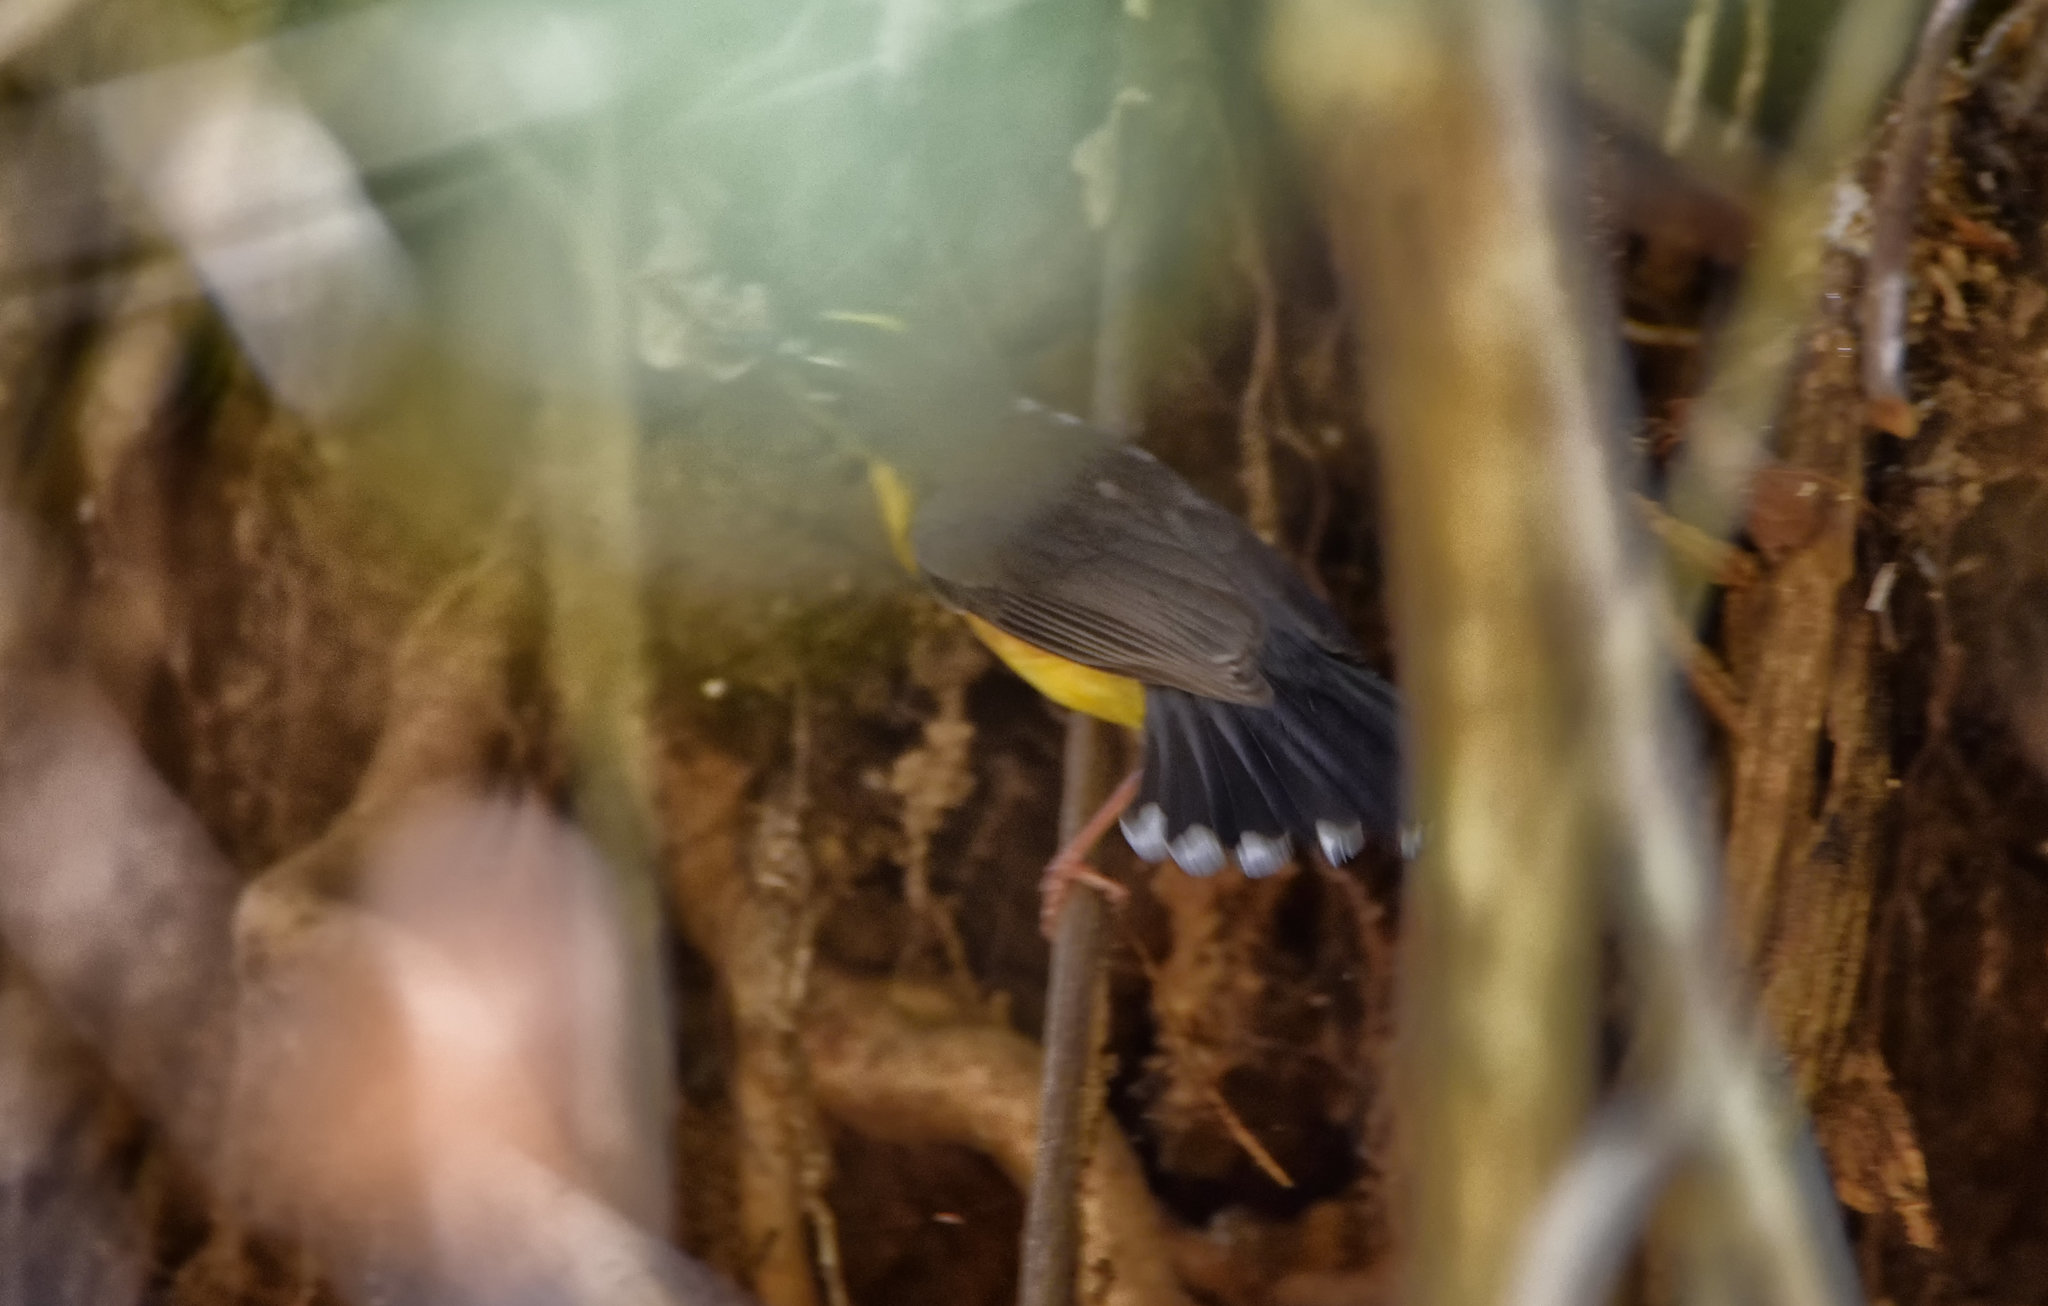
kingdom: Animalia
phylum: Chordata
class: Aves
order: Passeriformes
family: Parulidae
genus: Basileuterus
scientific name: Basileuterus lachrymosus
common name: Fan-tailed warbler
